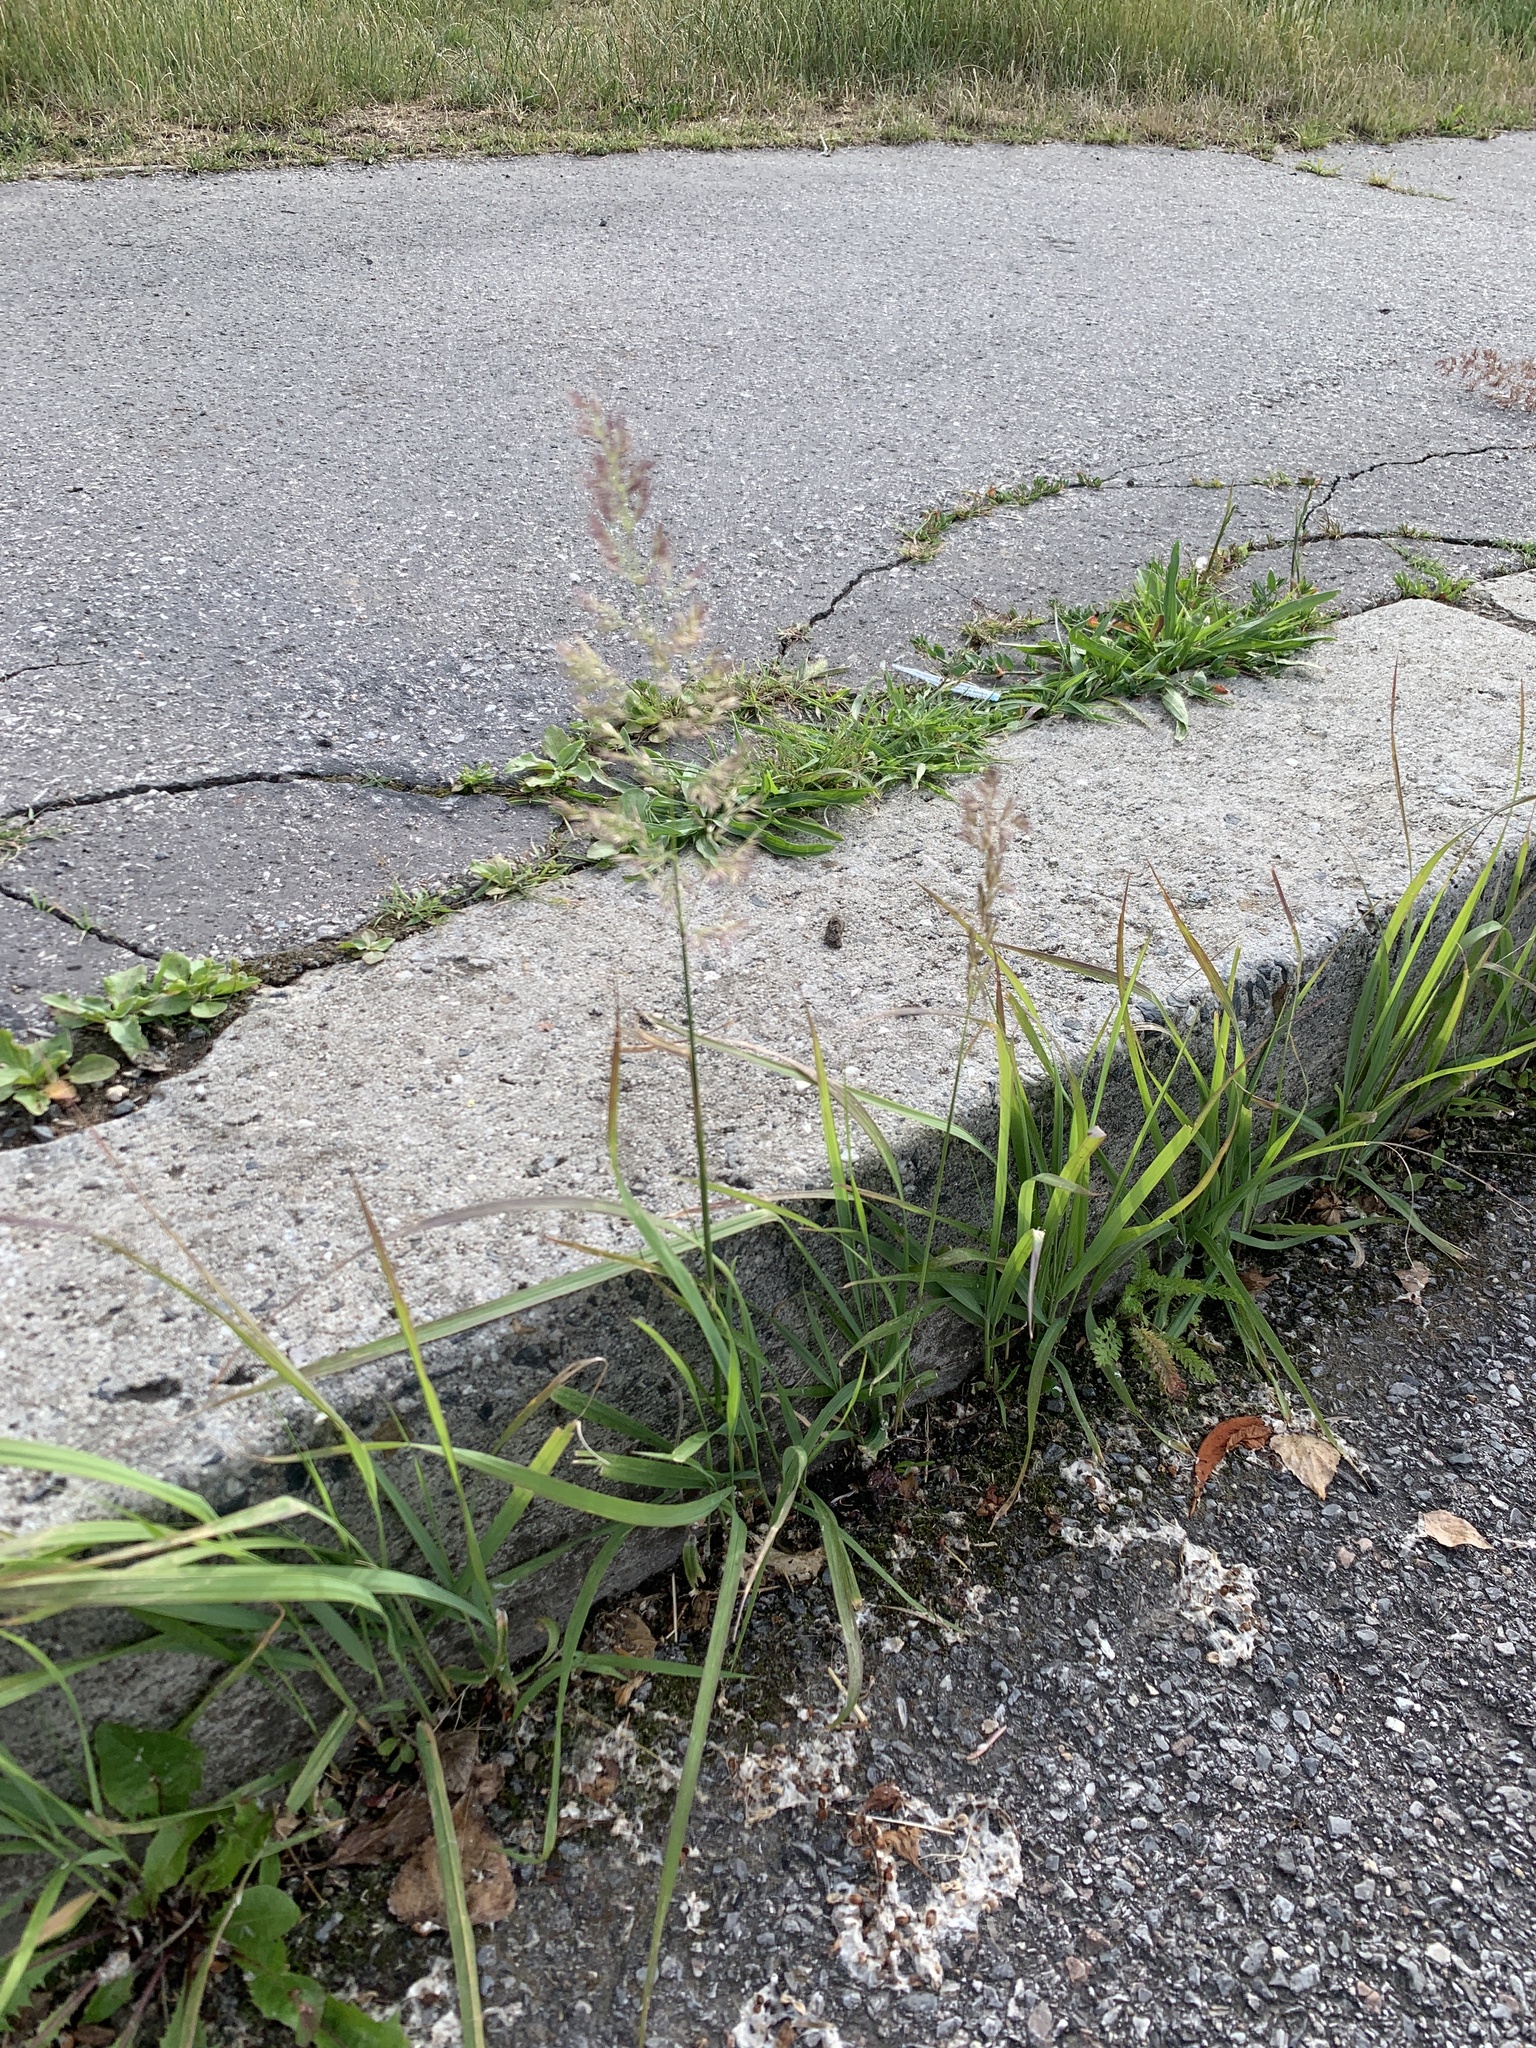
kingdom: Plantae
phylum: Tracheophyta
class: Liliopsida
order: Poales
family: Poaceae
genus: Calamagrostis
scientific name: Calamagrostis epigejos
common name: Wood small-reed
